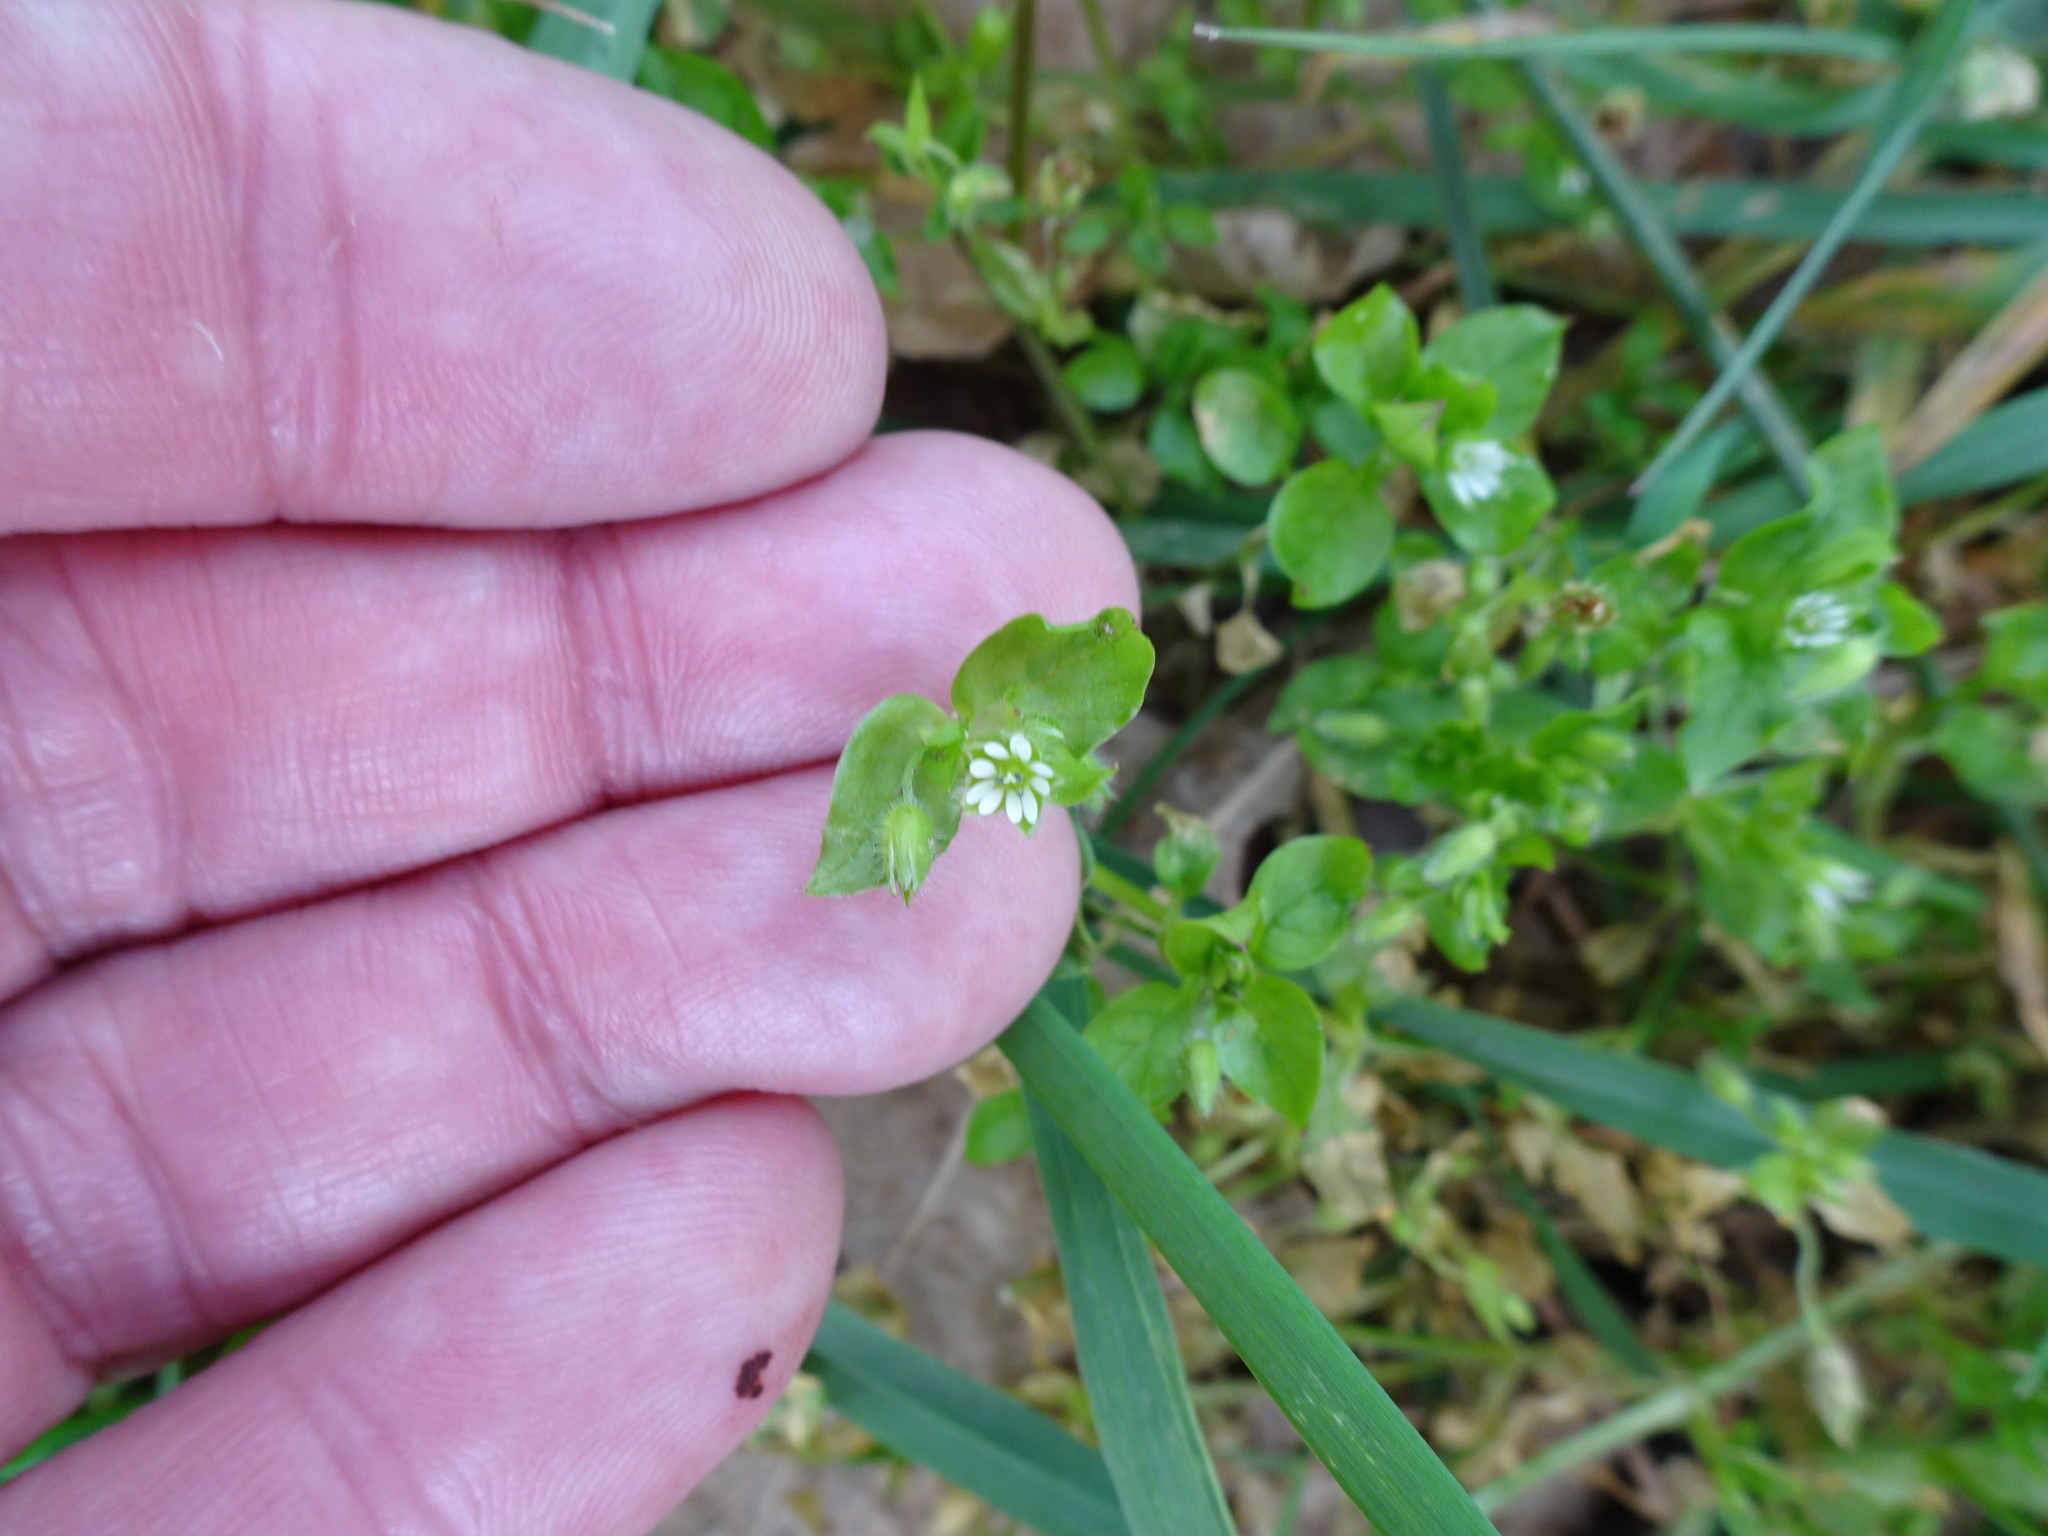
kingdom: Plantae
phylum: Tracheophyta
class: Magnoliopsida
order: Caryophyllales
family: Caryophyllaceae
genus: Stellaria
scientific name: Stellaria media
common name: Common chickweed
